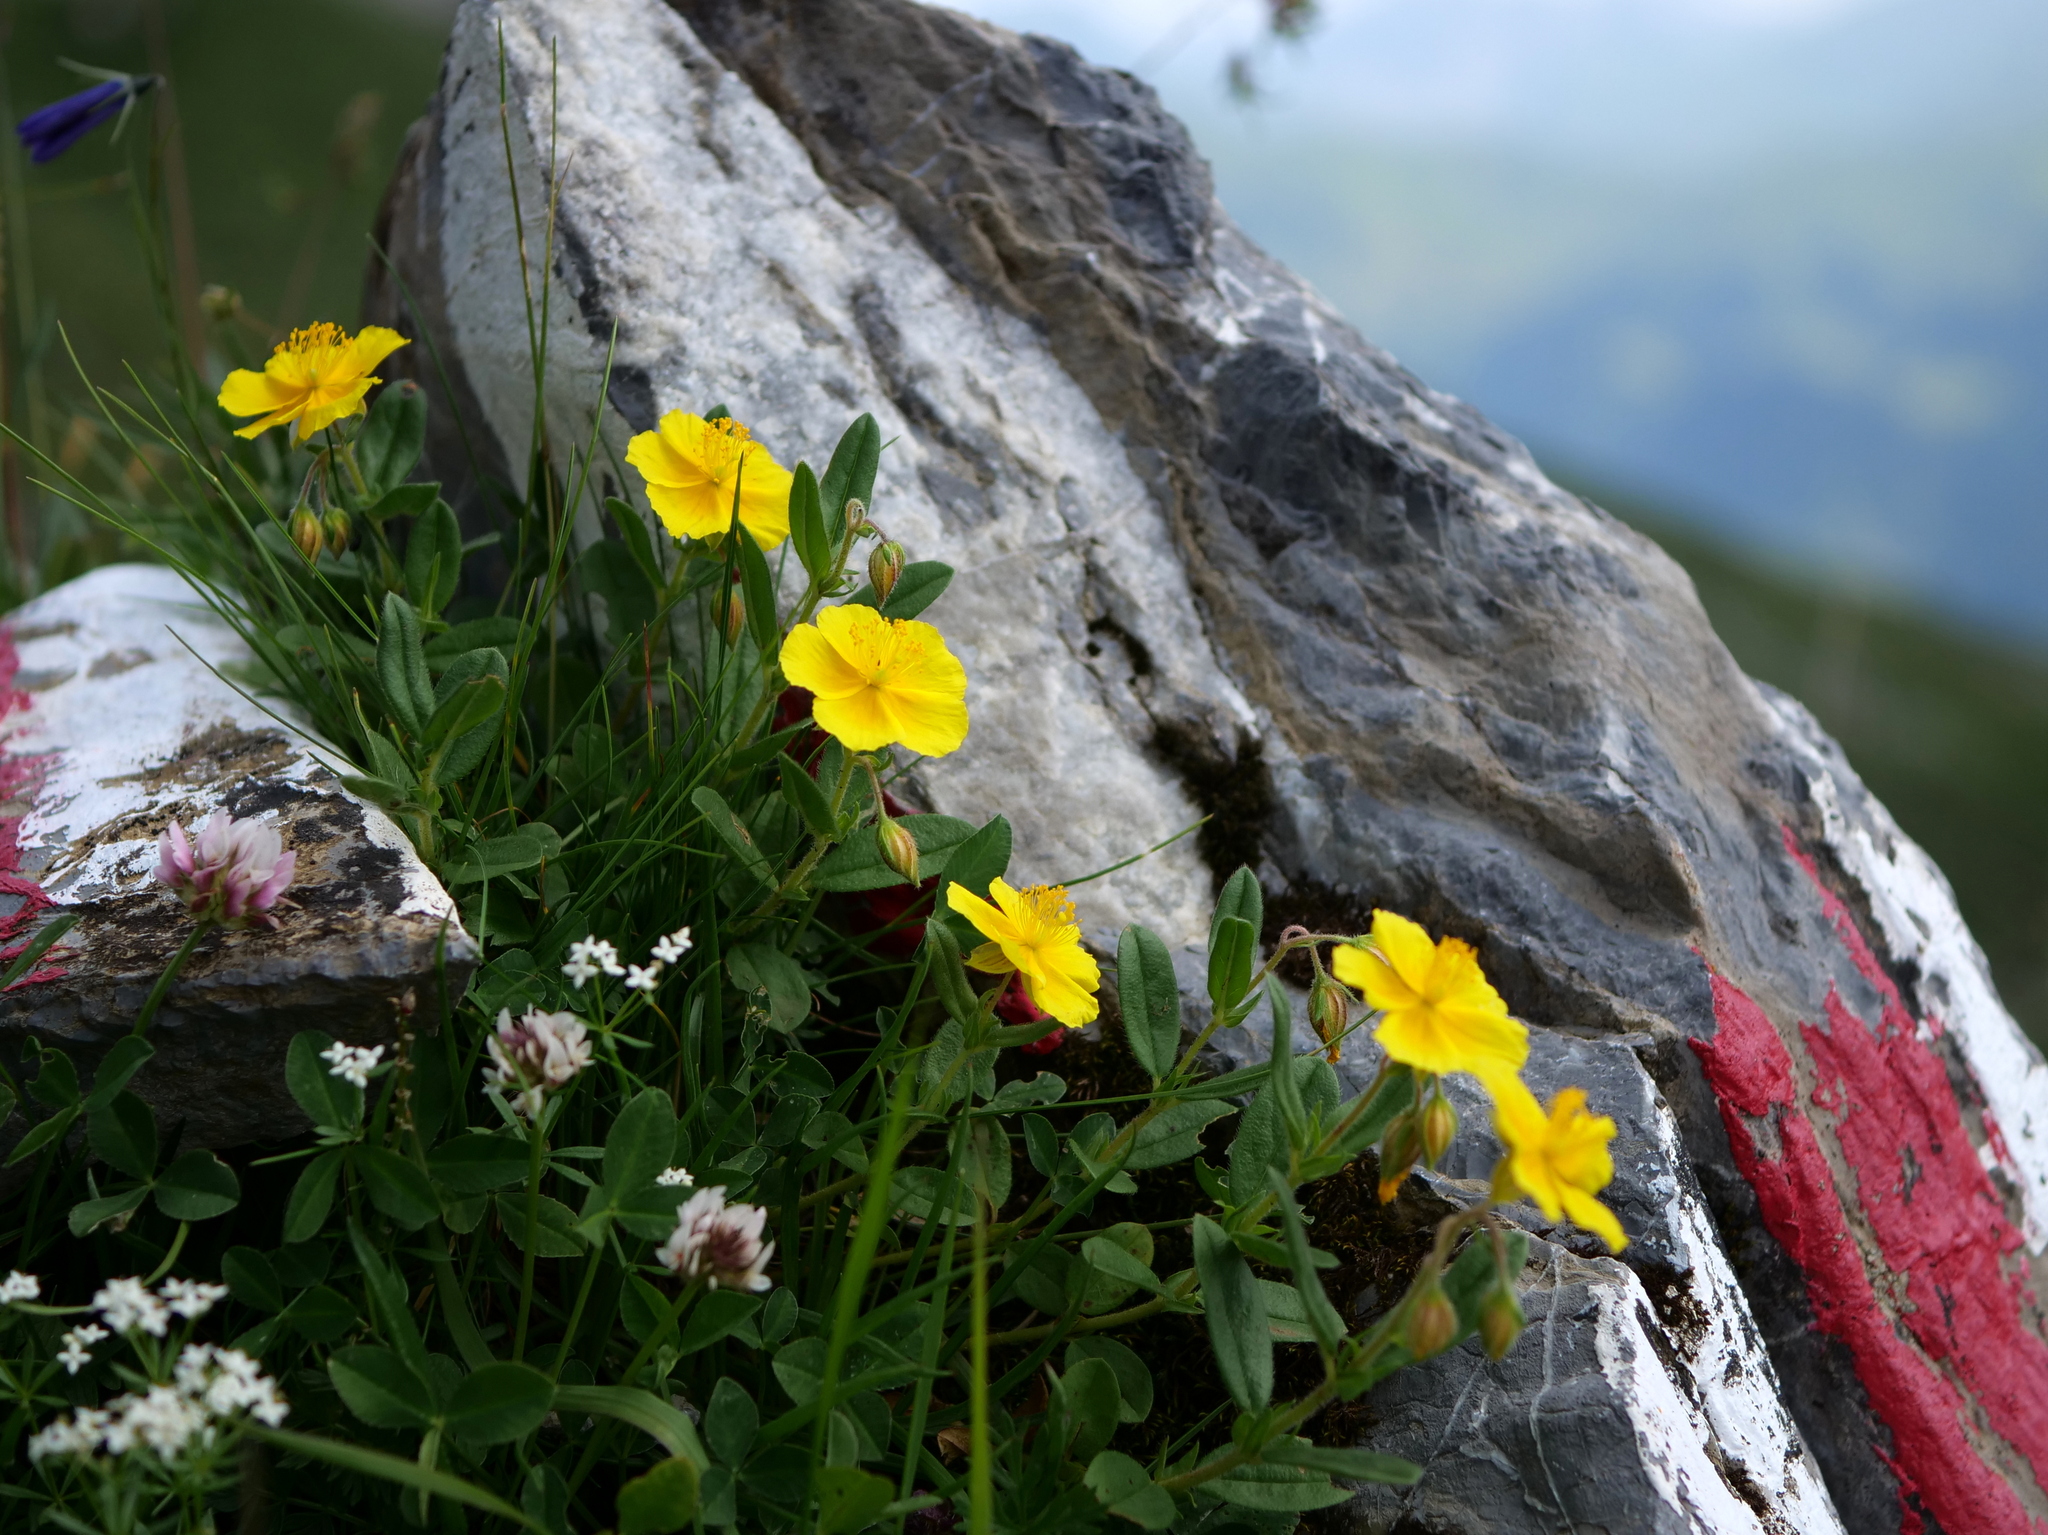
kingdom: Plantae
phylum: Tracheophyta
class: Magnoliopsida
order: Malvales
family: Cistaceae
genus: Helianthemum
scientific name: Helianthemum nummularium
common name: Common rock-rose
